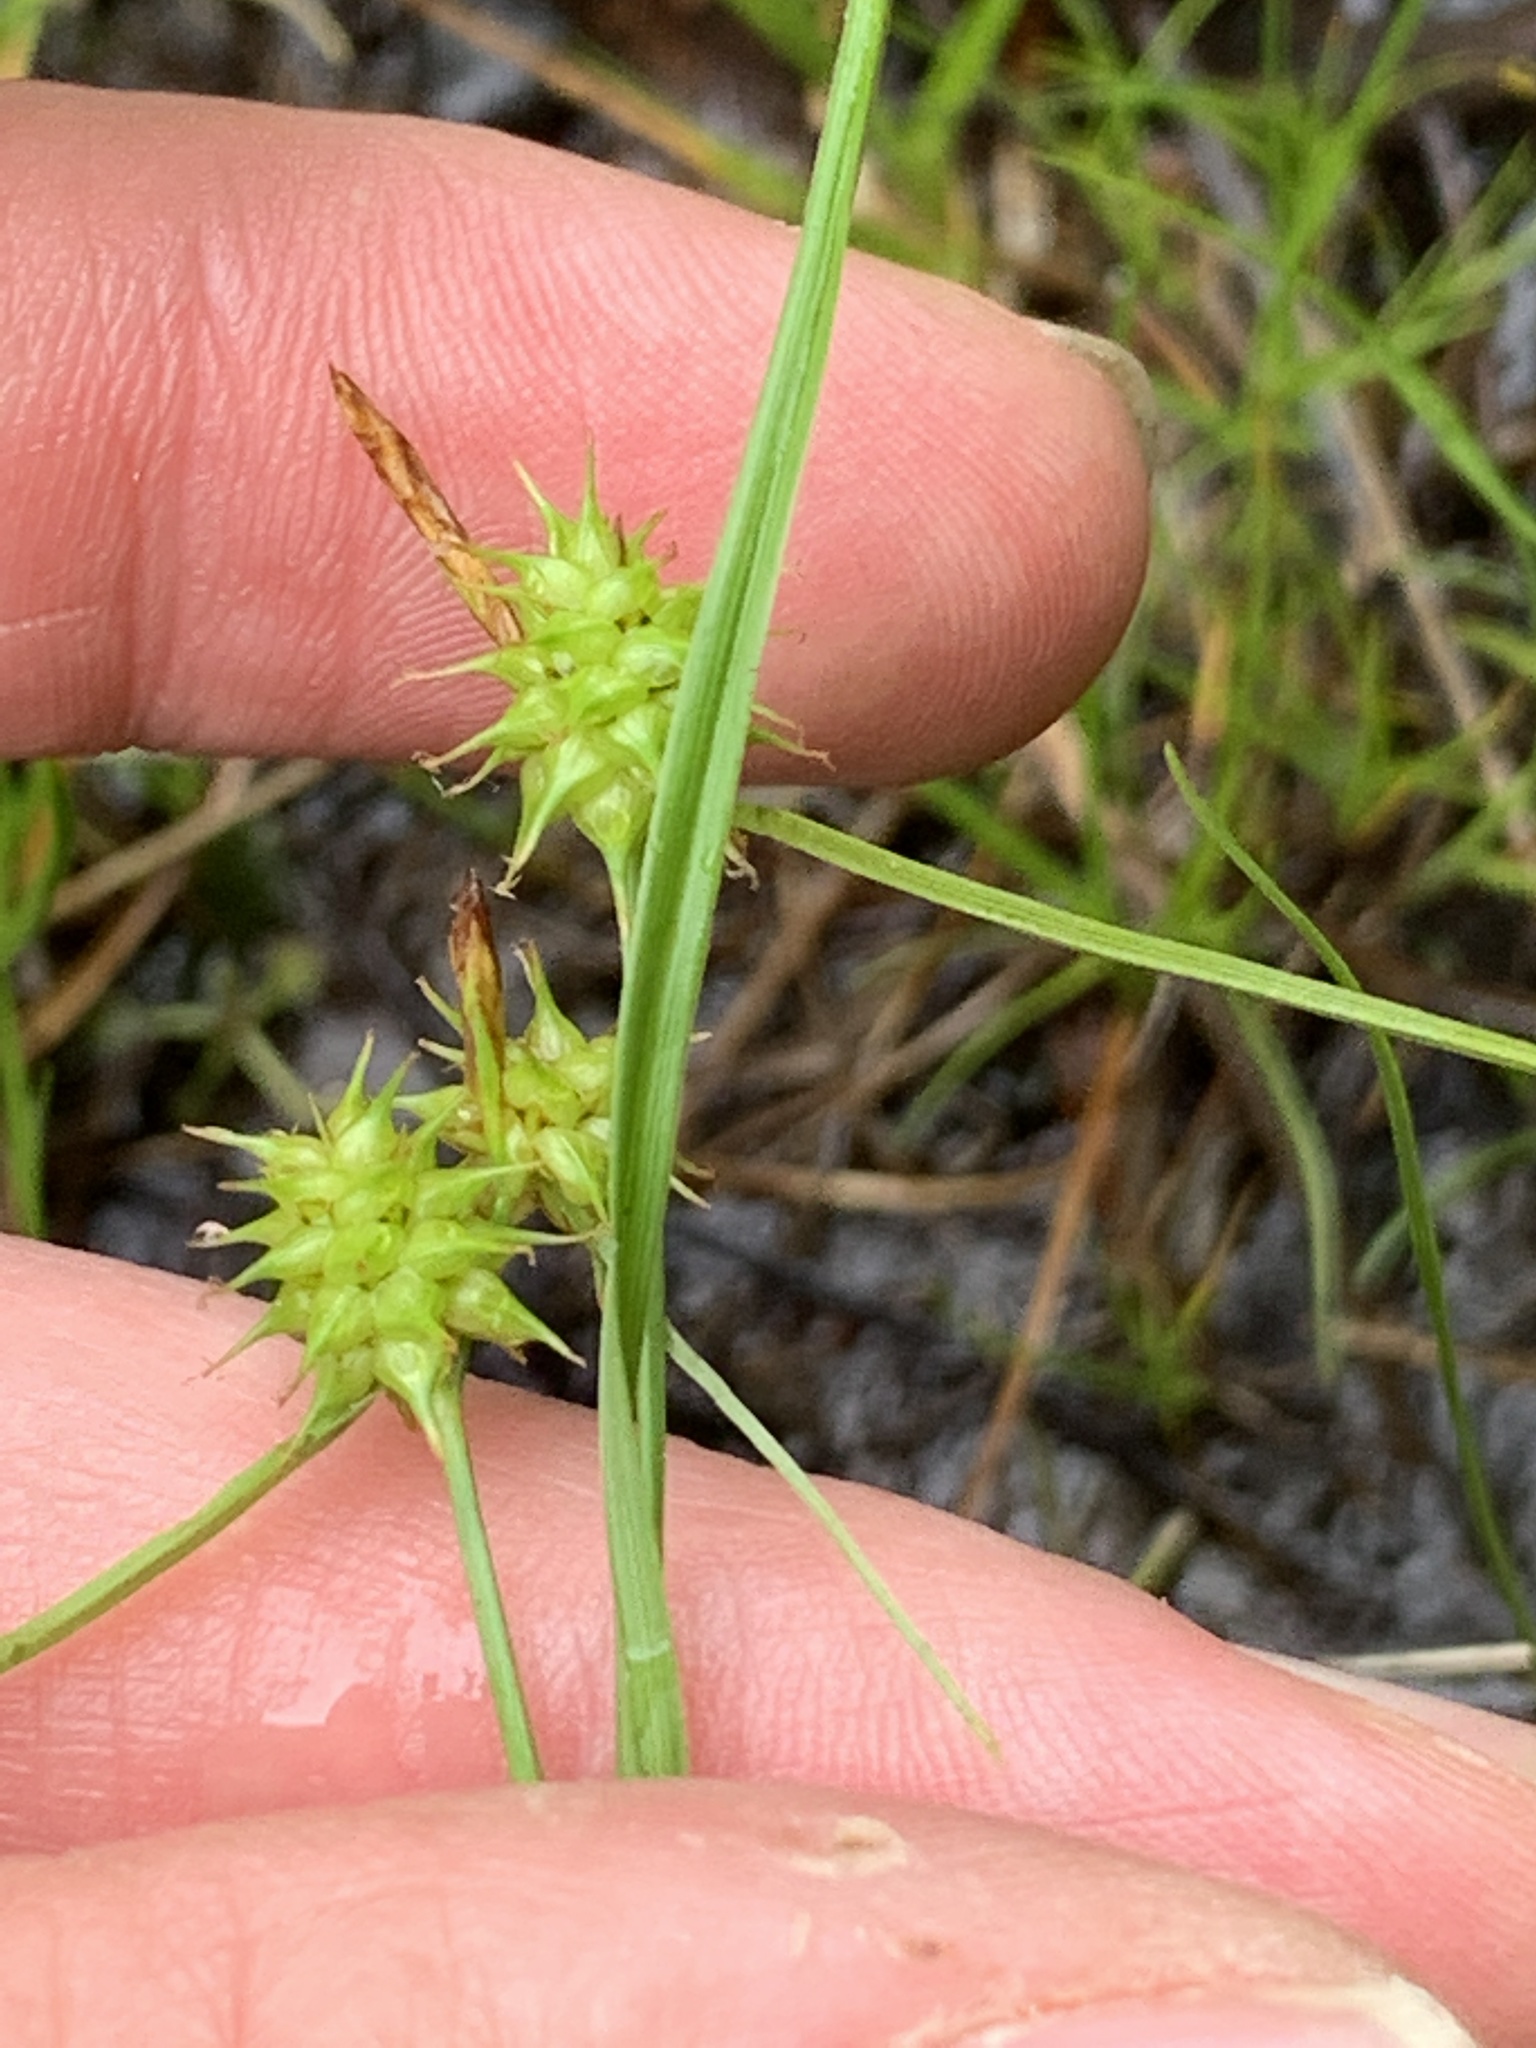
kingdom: Plantae
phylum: Tracheophyta
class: Liliopsida
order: Poales
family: Cyperaceae
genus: Carex
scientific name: Carex flava
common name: Large yellow-sedge
